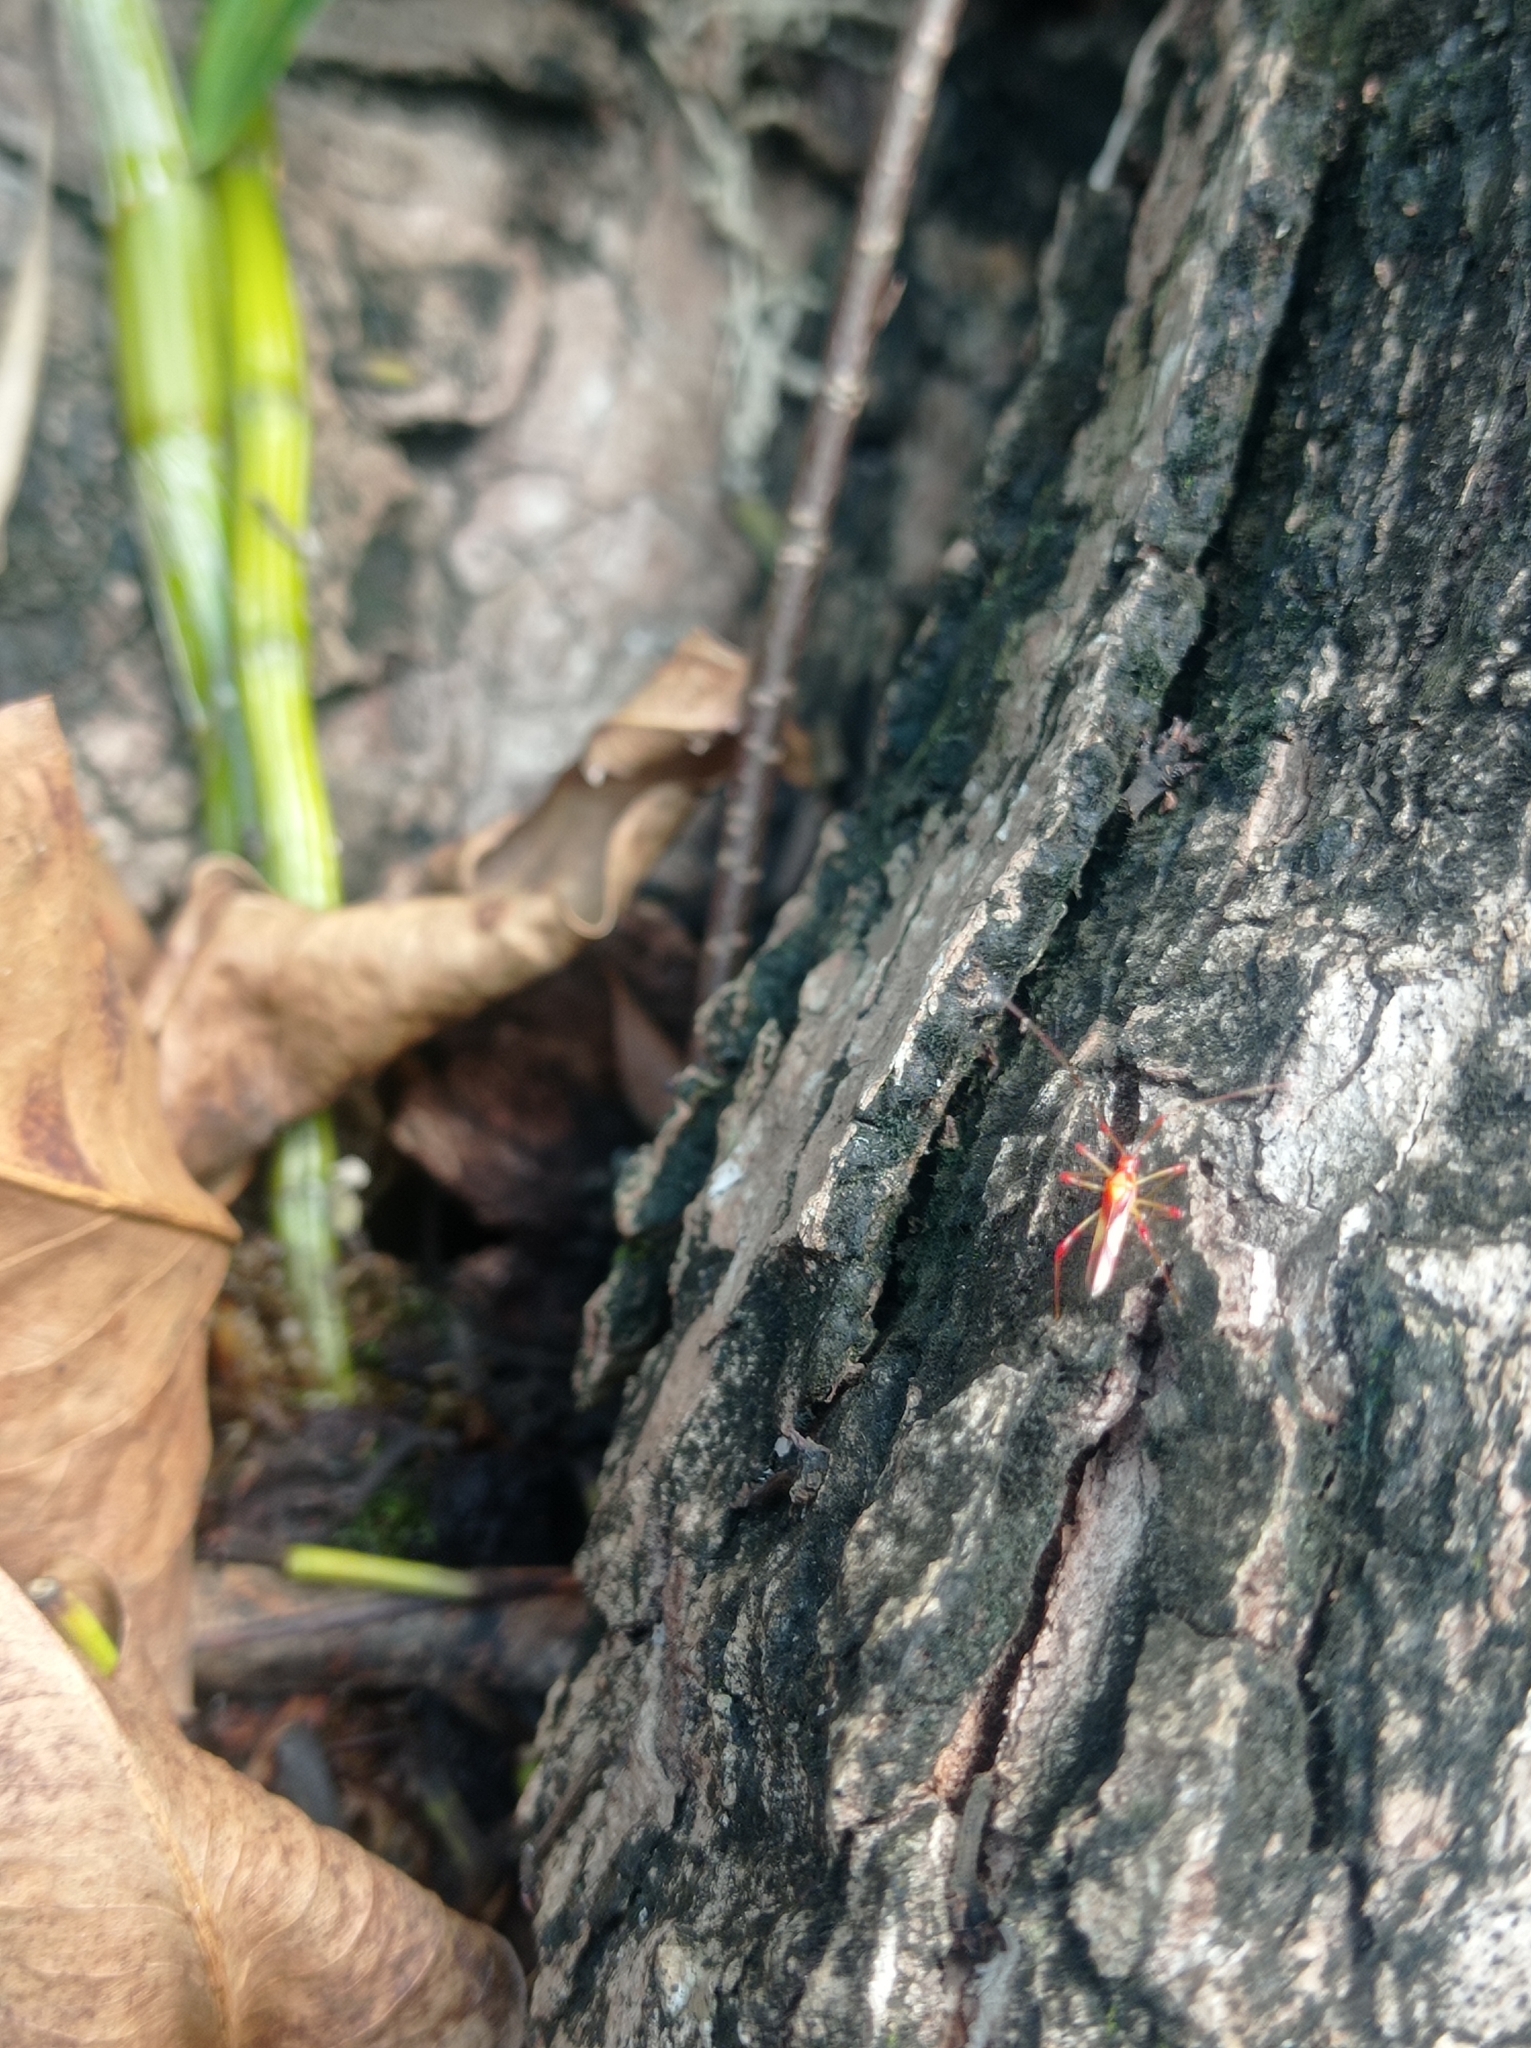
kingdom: Animalia
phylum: Arthropoda
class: Insecta
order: Hemiptera
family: Miridae
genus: Ragwelellus
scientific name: Ragwelellus rubrinus
